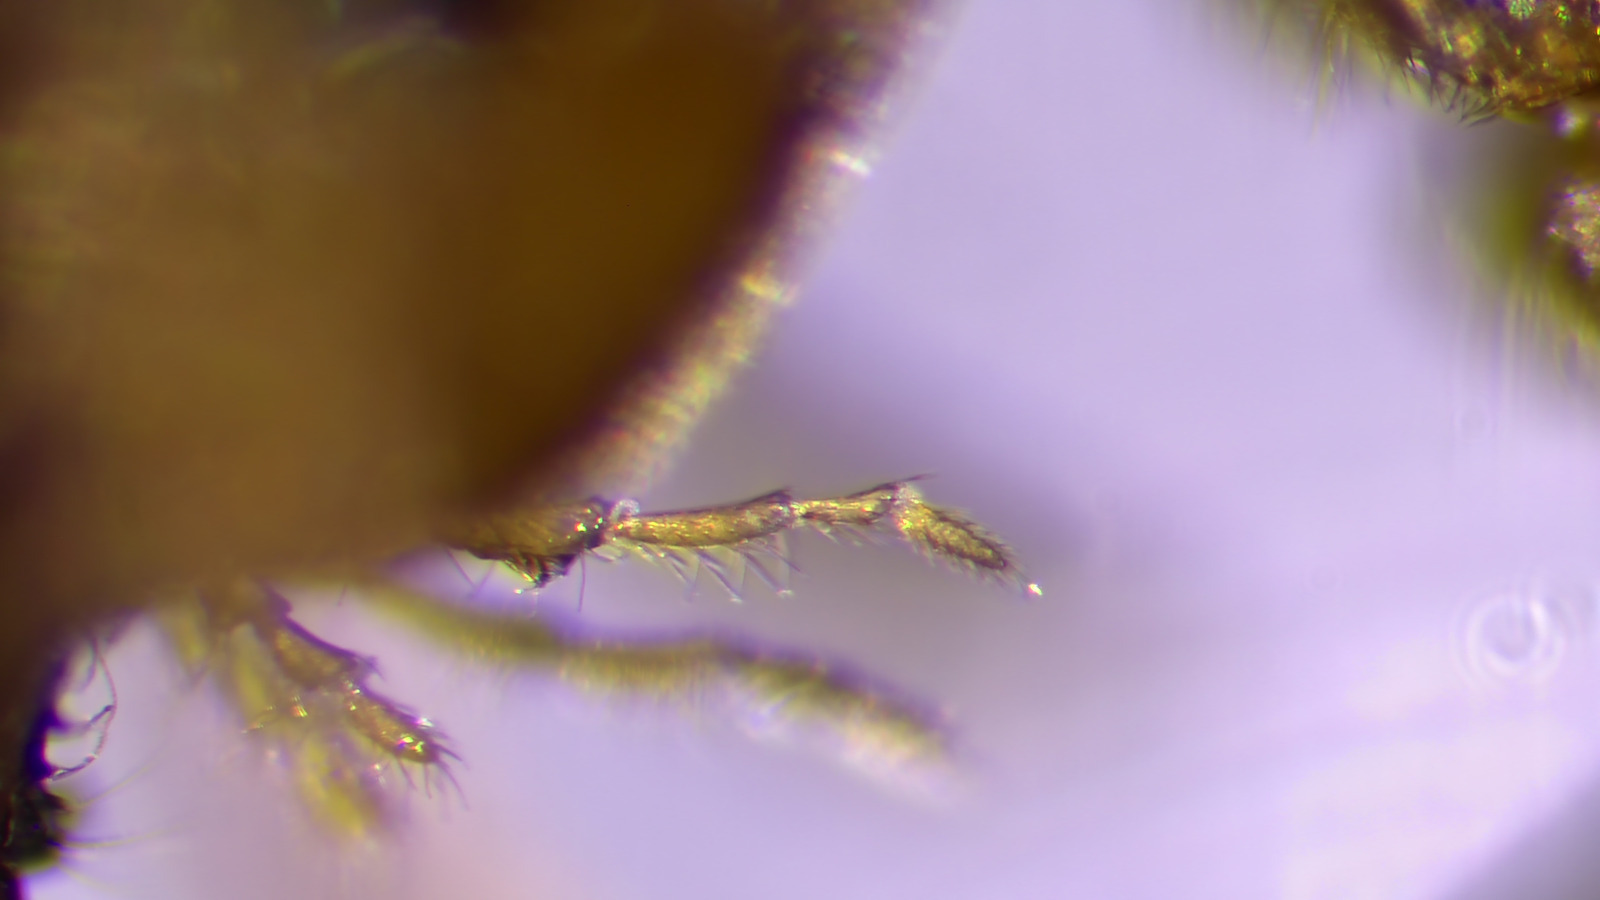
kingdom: Animalia
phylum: Arthropoda
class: Insecta
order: Hymenoptera
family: Formicidae
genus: Lasius
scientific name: Lasius nearcticus
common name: New world fuzzy ant
